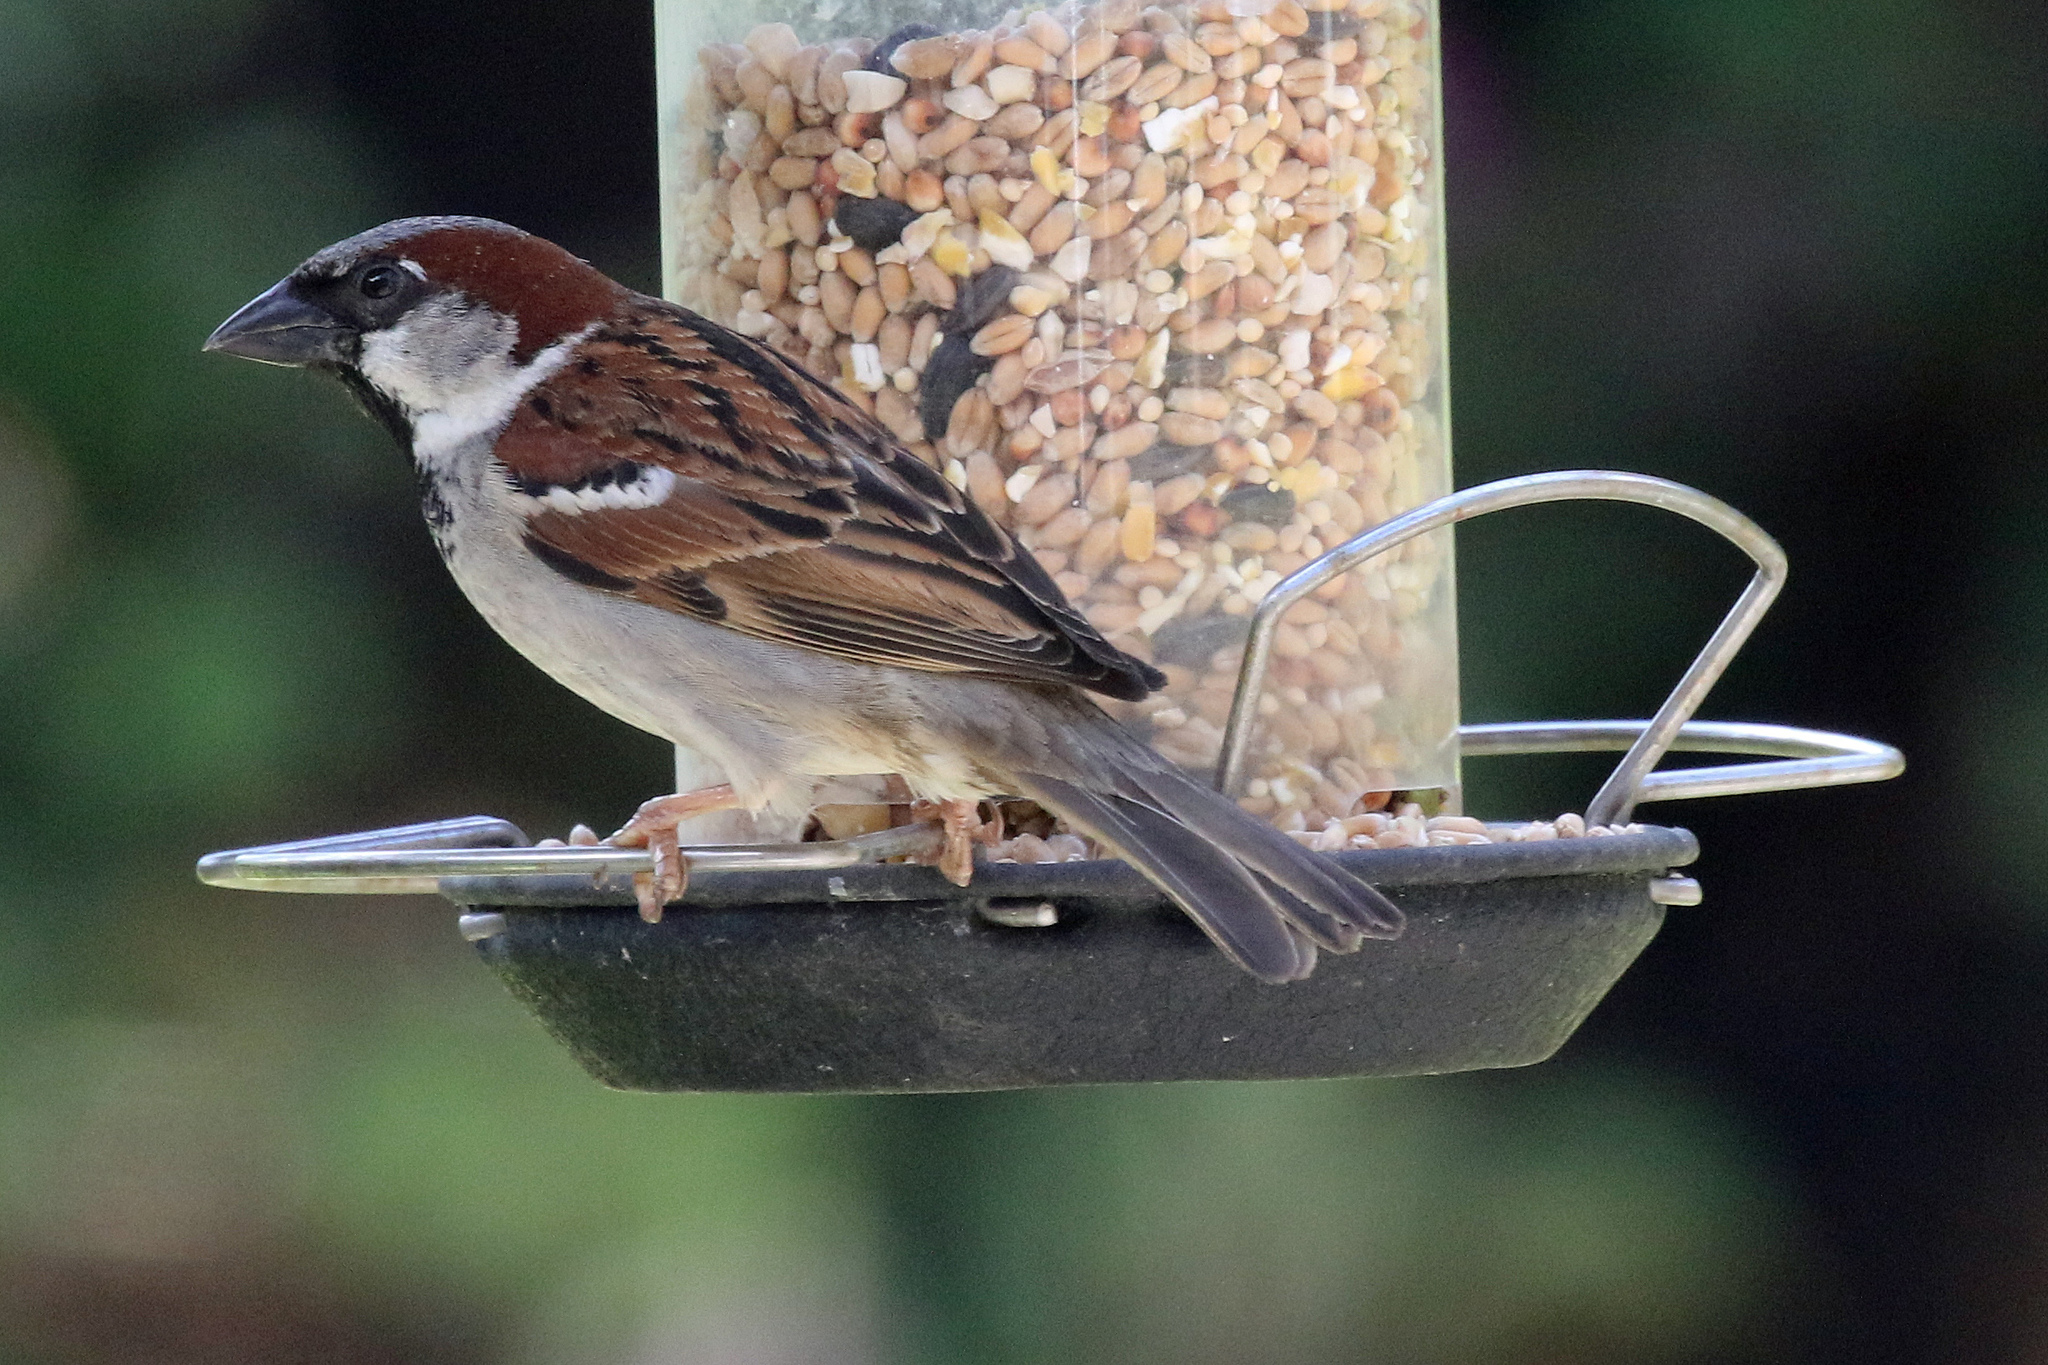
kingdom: Animalia
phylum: Chordata
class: Aves
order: Passeriformes
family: Passeridae
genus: Passer
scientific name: Passer domesticus
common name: House sparrow
